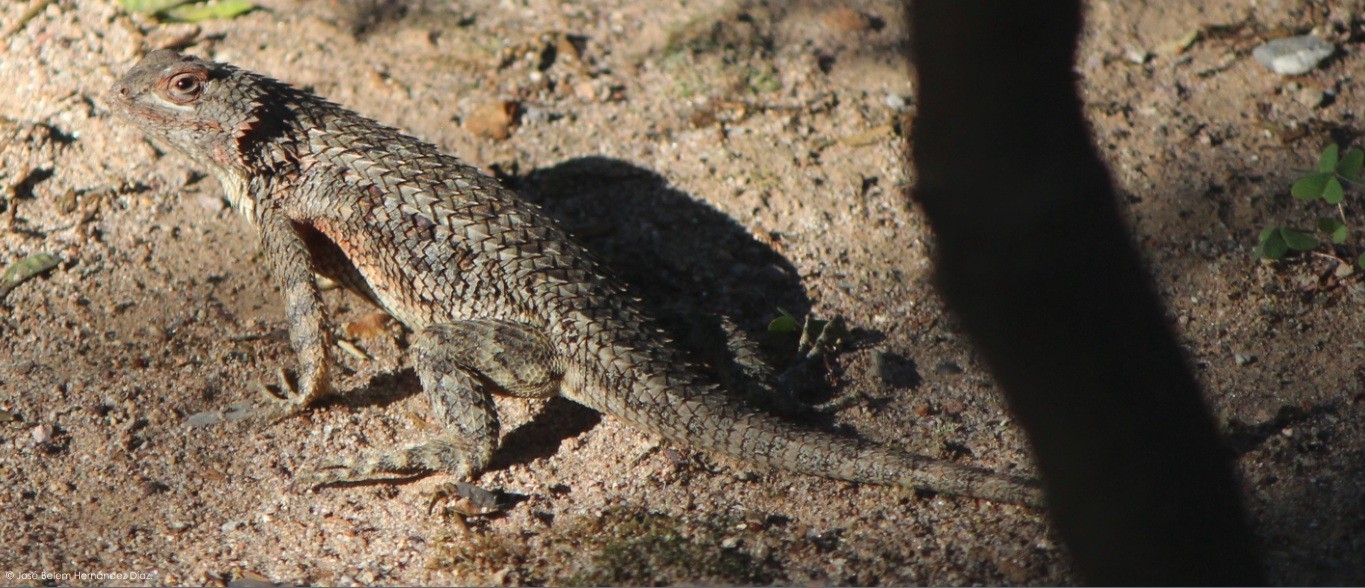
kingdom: Animalia
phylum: Chordata
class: Squamata
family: Phrynosomatidae
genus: Sceloporus
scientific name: Sceloporus spinosus
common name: Blue-spotted spiny lizard [caeruleopunctatus]
